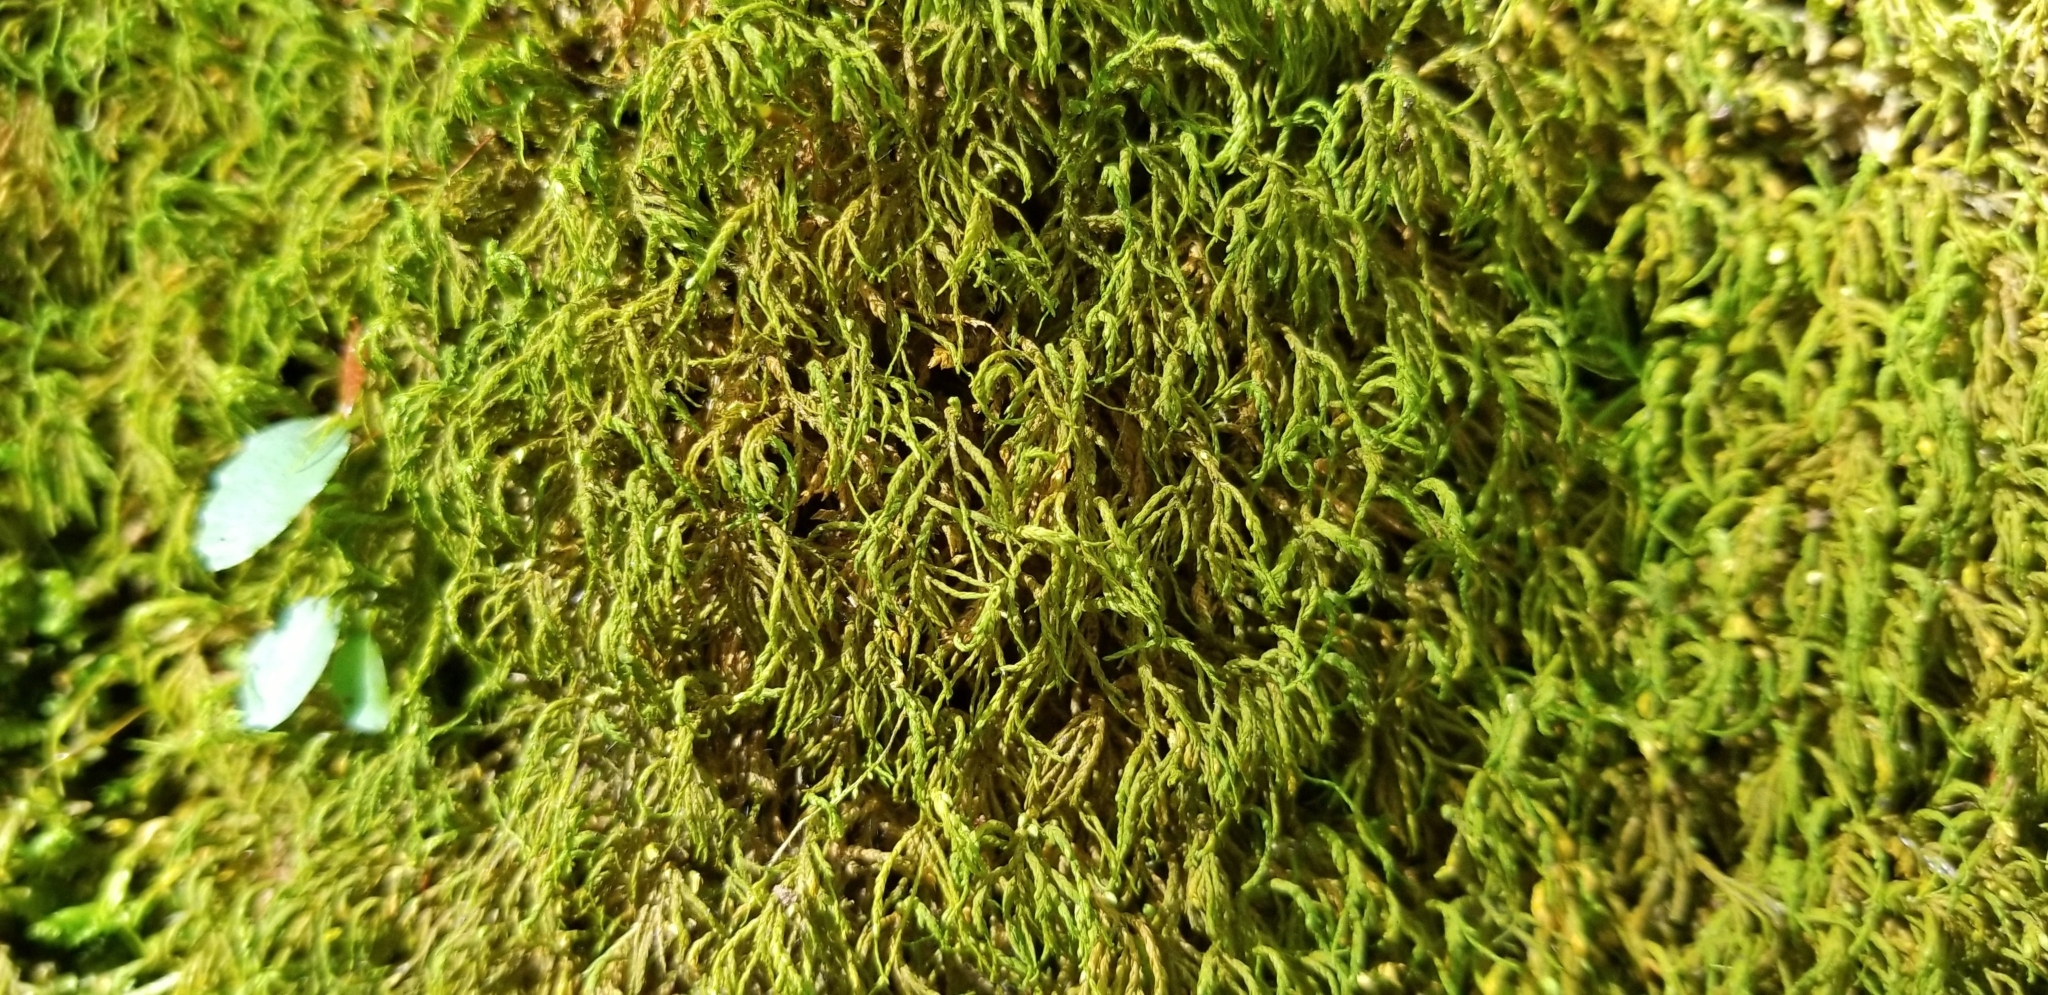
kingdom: Plantae
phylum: Bryophyta
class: Bryopsida
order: Hypnales
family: Neckeraceae
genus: Pseudanomodon
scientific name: Pseudanomodon attenuatus
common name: Tree-skirt moss
